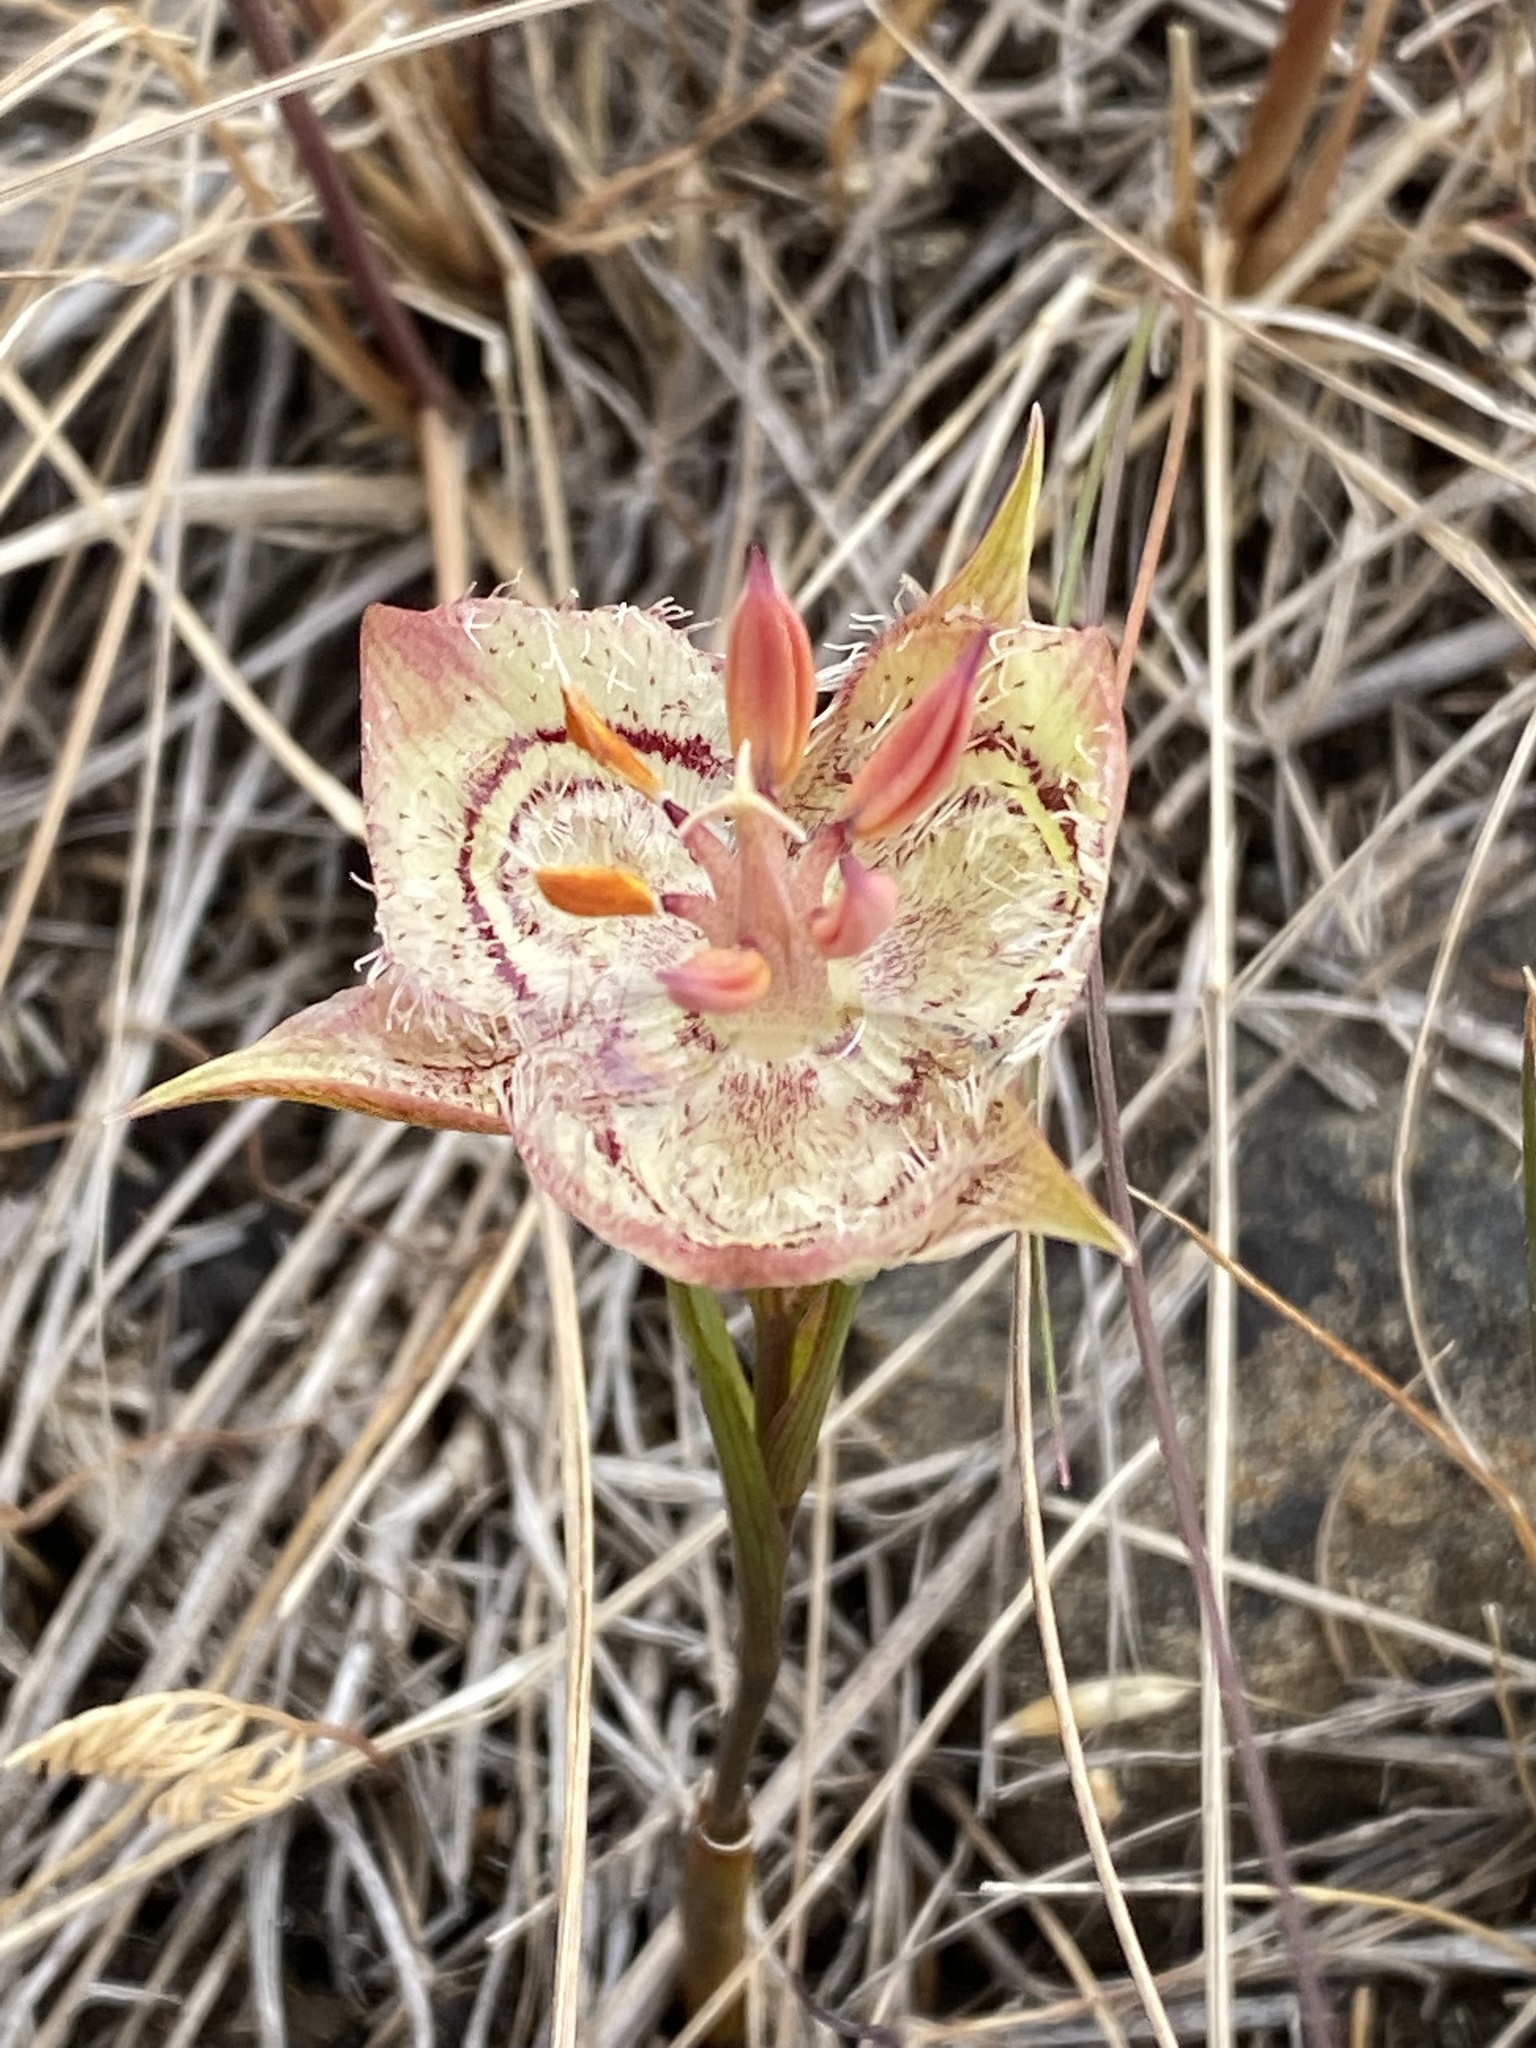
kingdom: Plantae
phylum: Tracheophyta
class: Liliopsida
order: Liliales
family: Liliaceae
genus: Calochortus
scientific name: Calochortus tiburonensis
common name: Tiburon mariposa-lily
